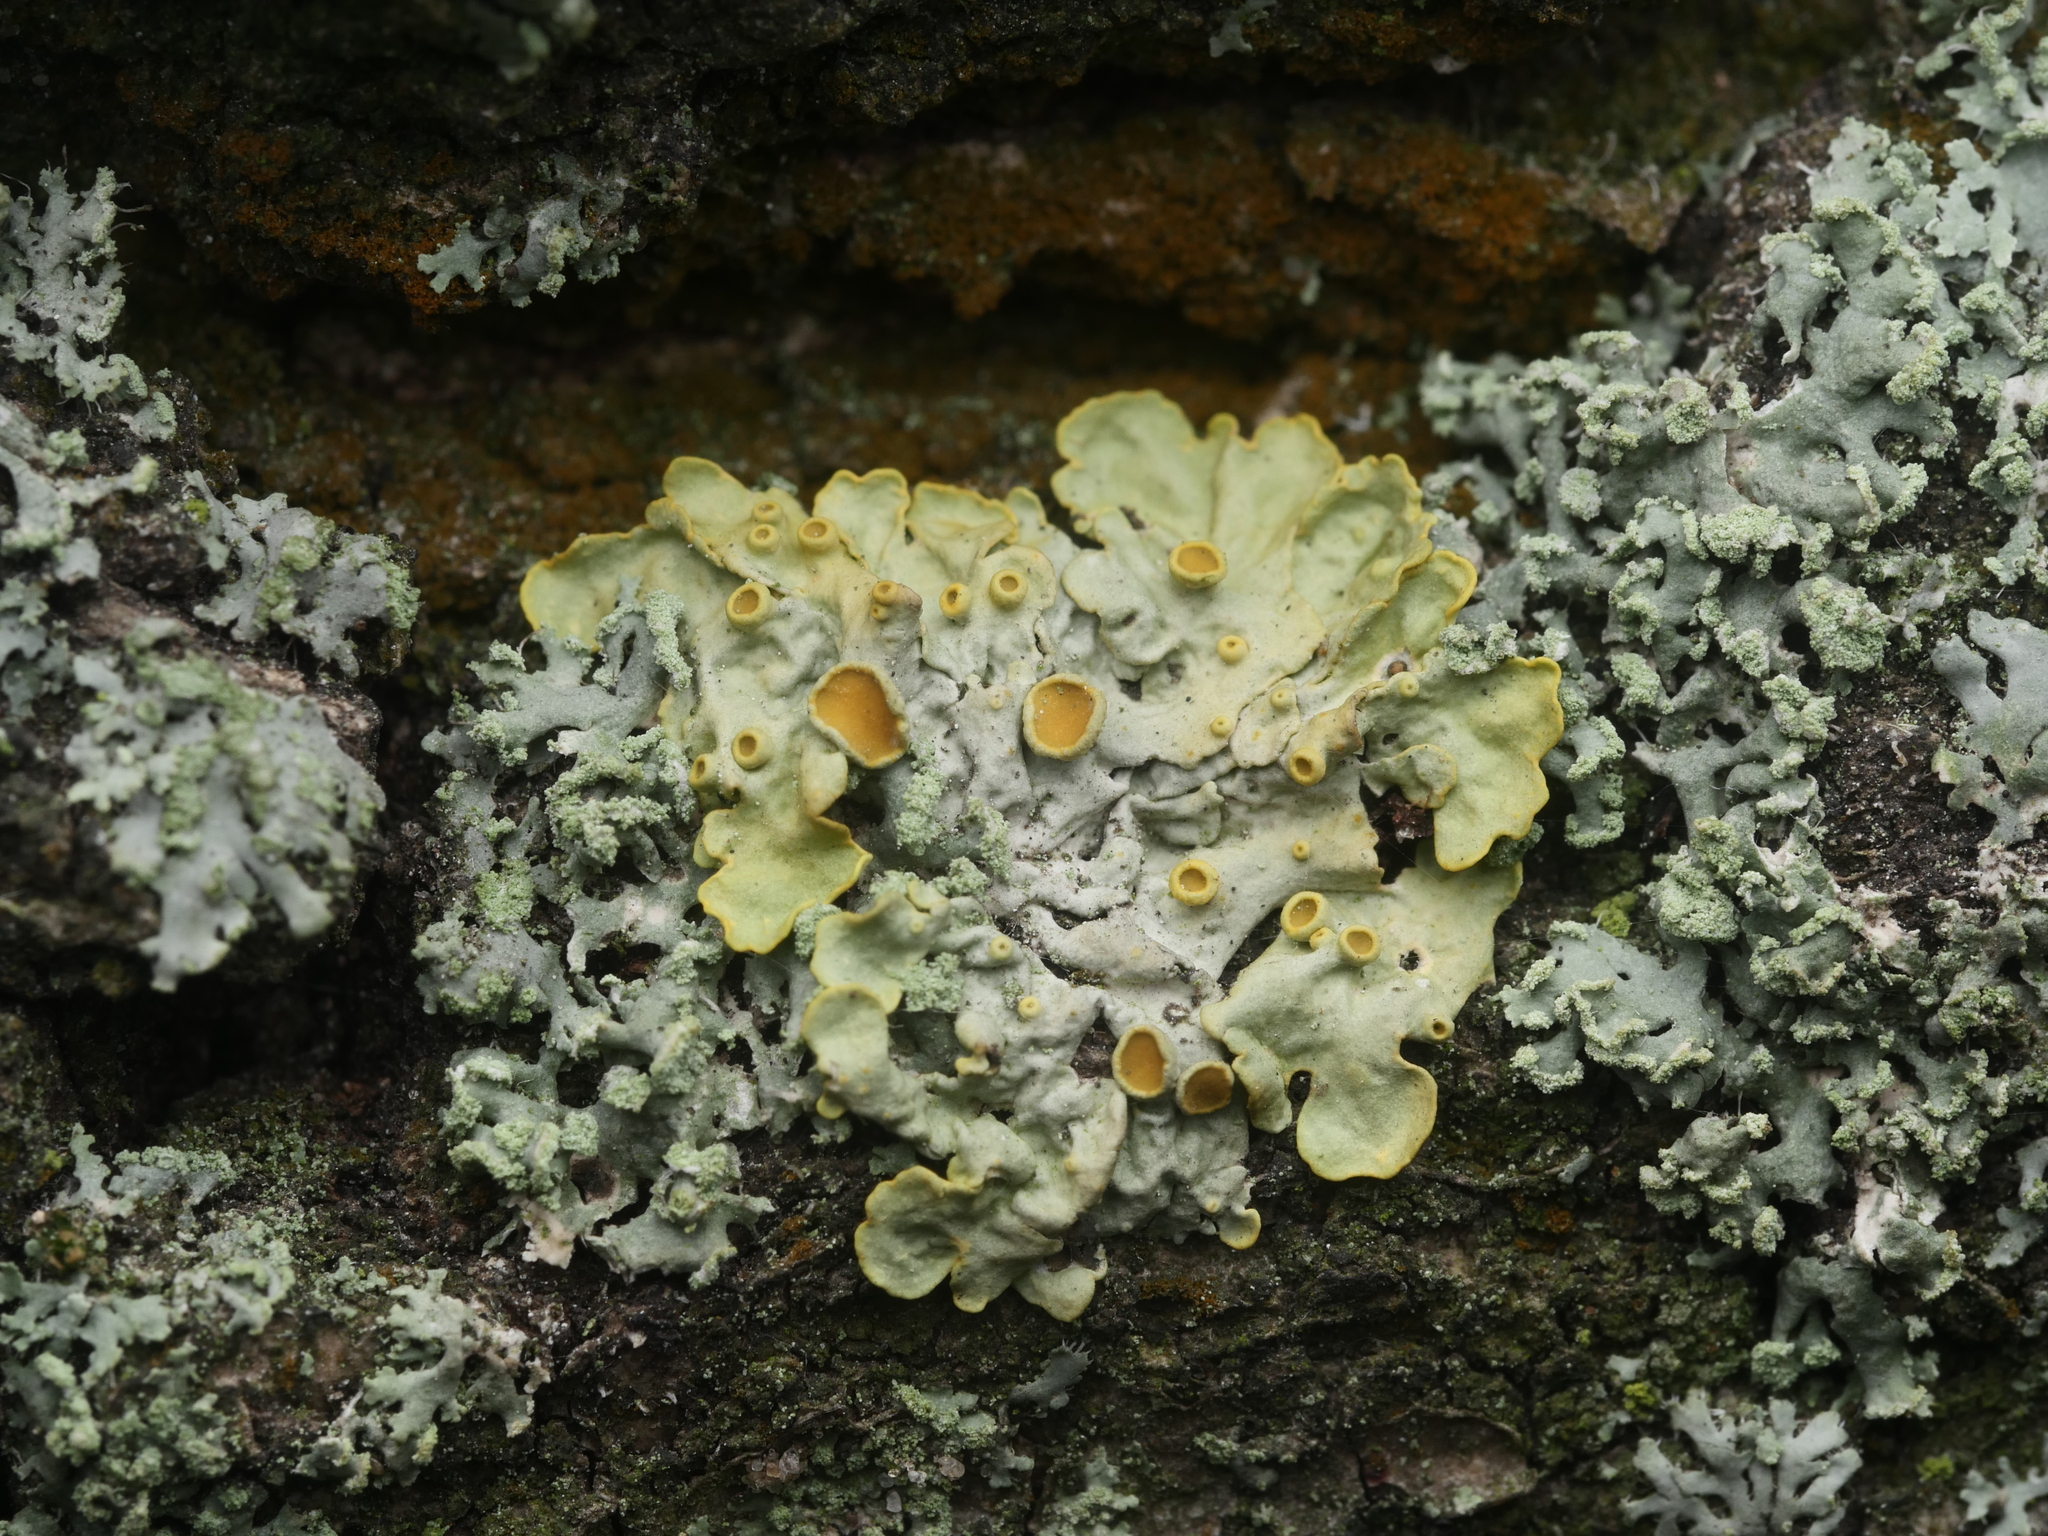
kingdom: Fungi
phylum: Ascomycota
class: Lecanoromycetes
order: Teloschistales
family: Teloschistaceae
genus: Xanthoria
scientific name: Xanthoria parietina
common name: Common orange lichen
